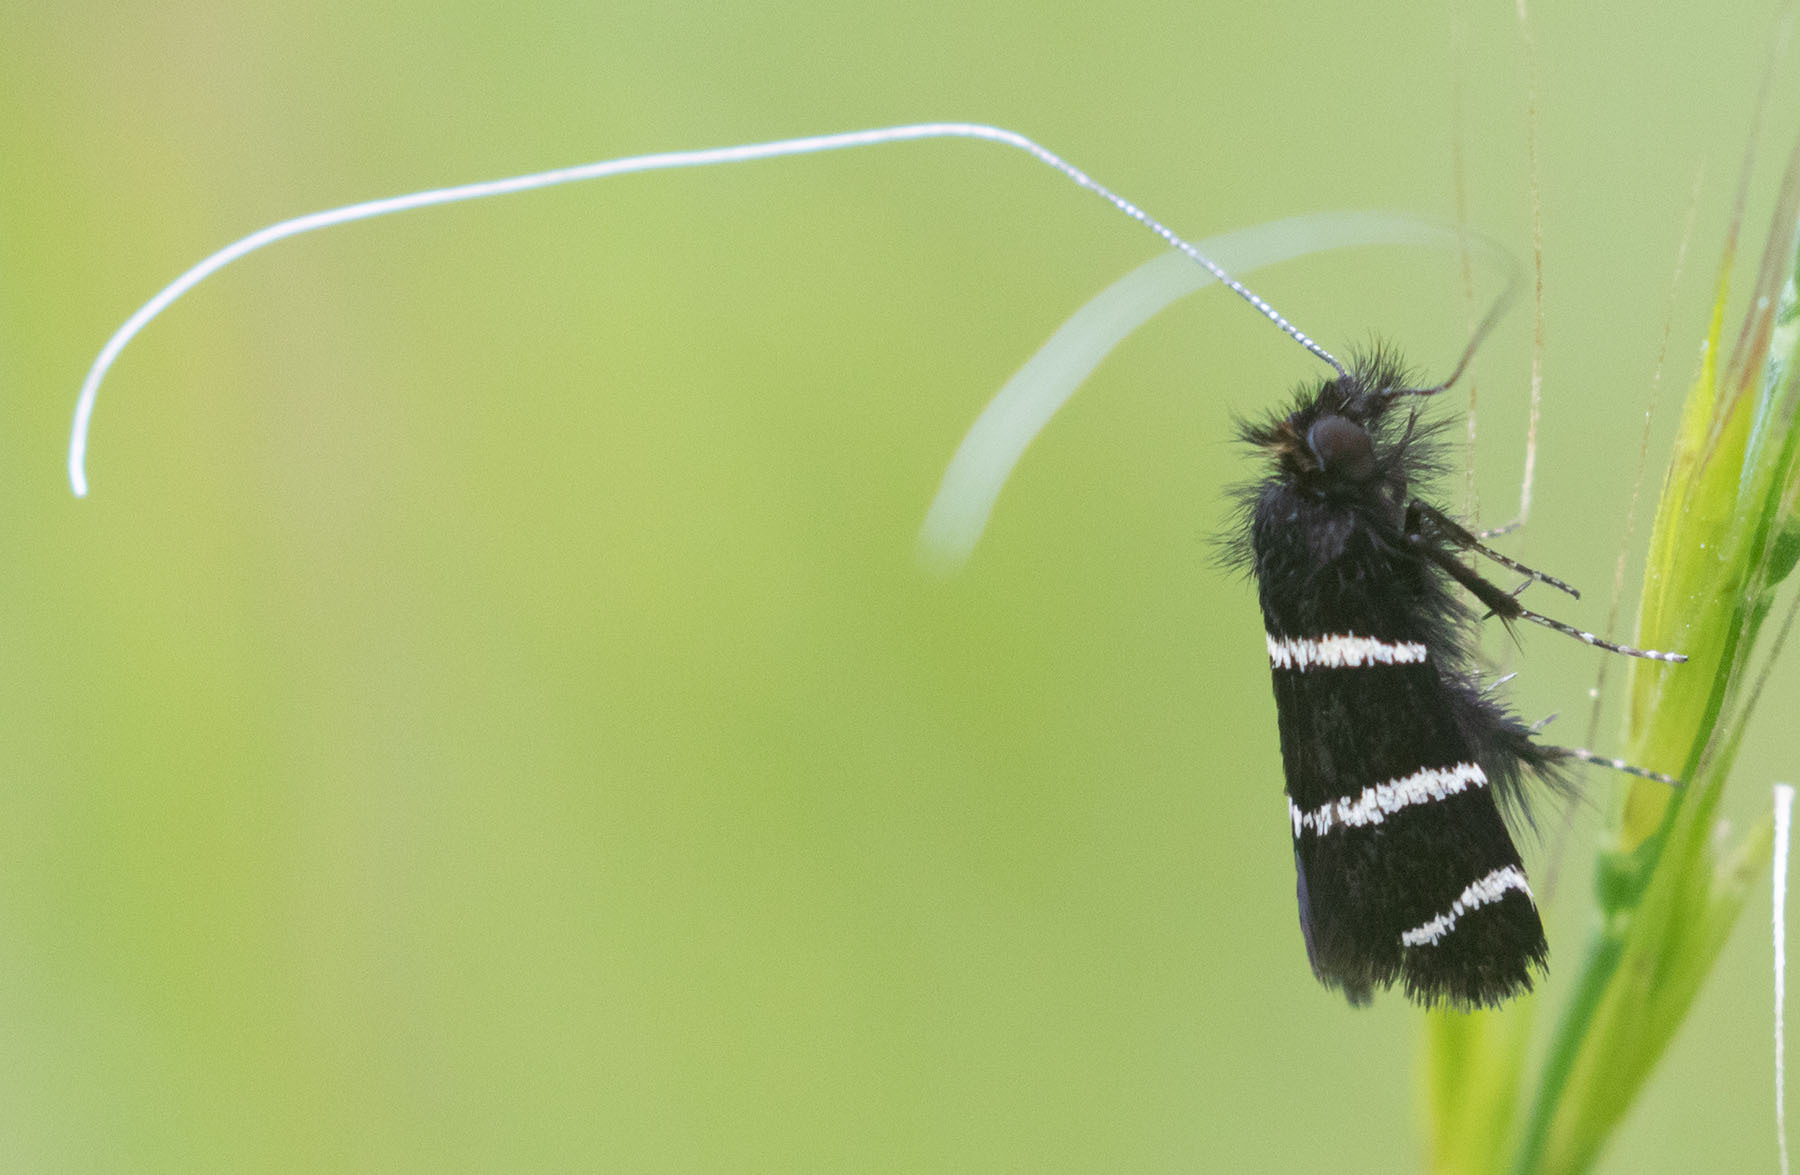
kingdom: Animalia
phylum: Arthropoda
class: Insecta
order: Lepidoptera
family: Adelidae
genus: Adela
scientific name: Adela trigrapha
